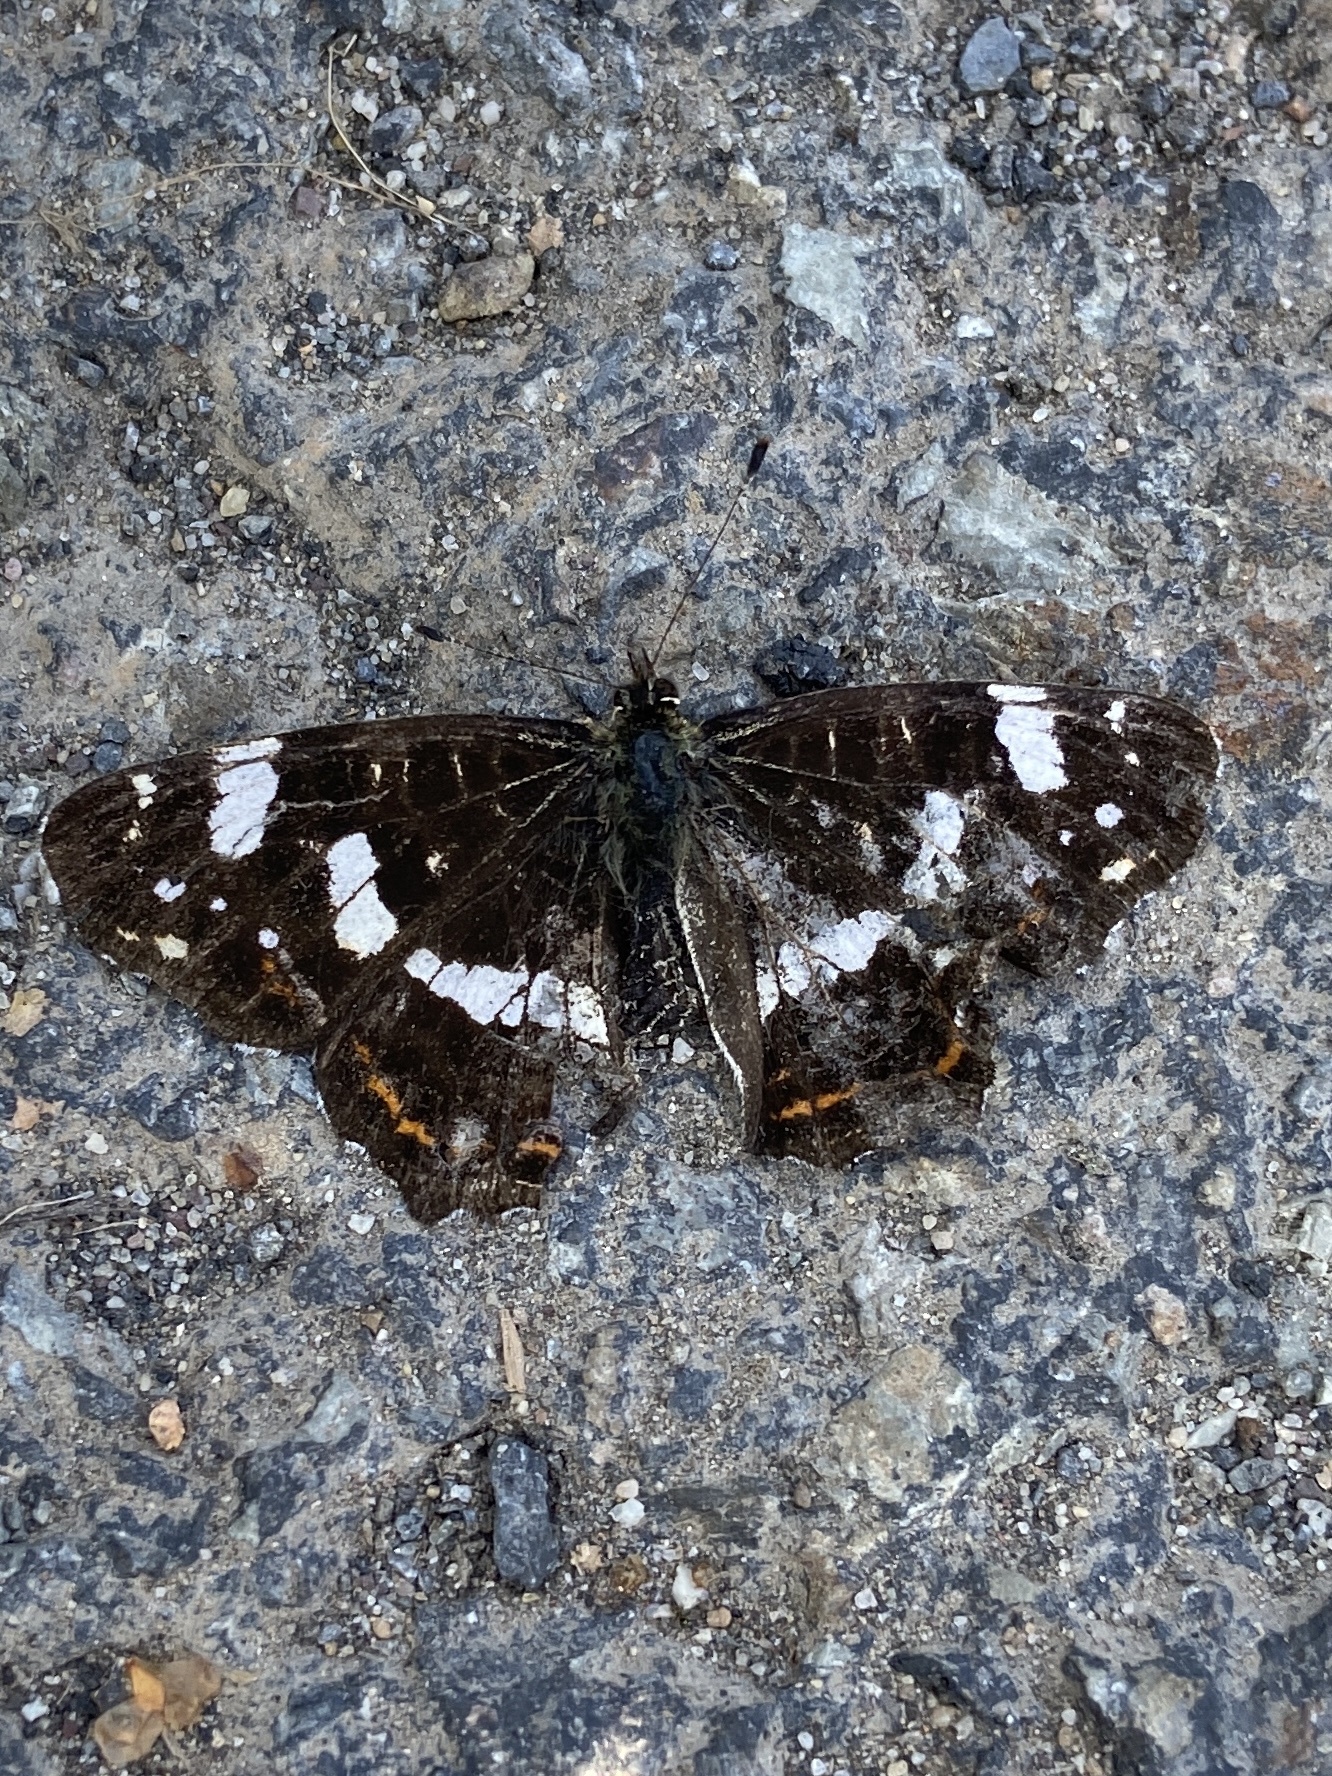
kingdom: Animalia
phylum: Arthropoda
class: Insecta
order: Lepidoptera
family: Nymphalidae
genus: Araschnia
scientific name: Araschnia levana
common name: Map butterfly
